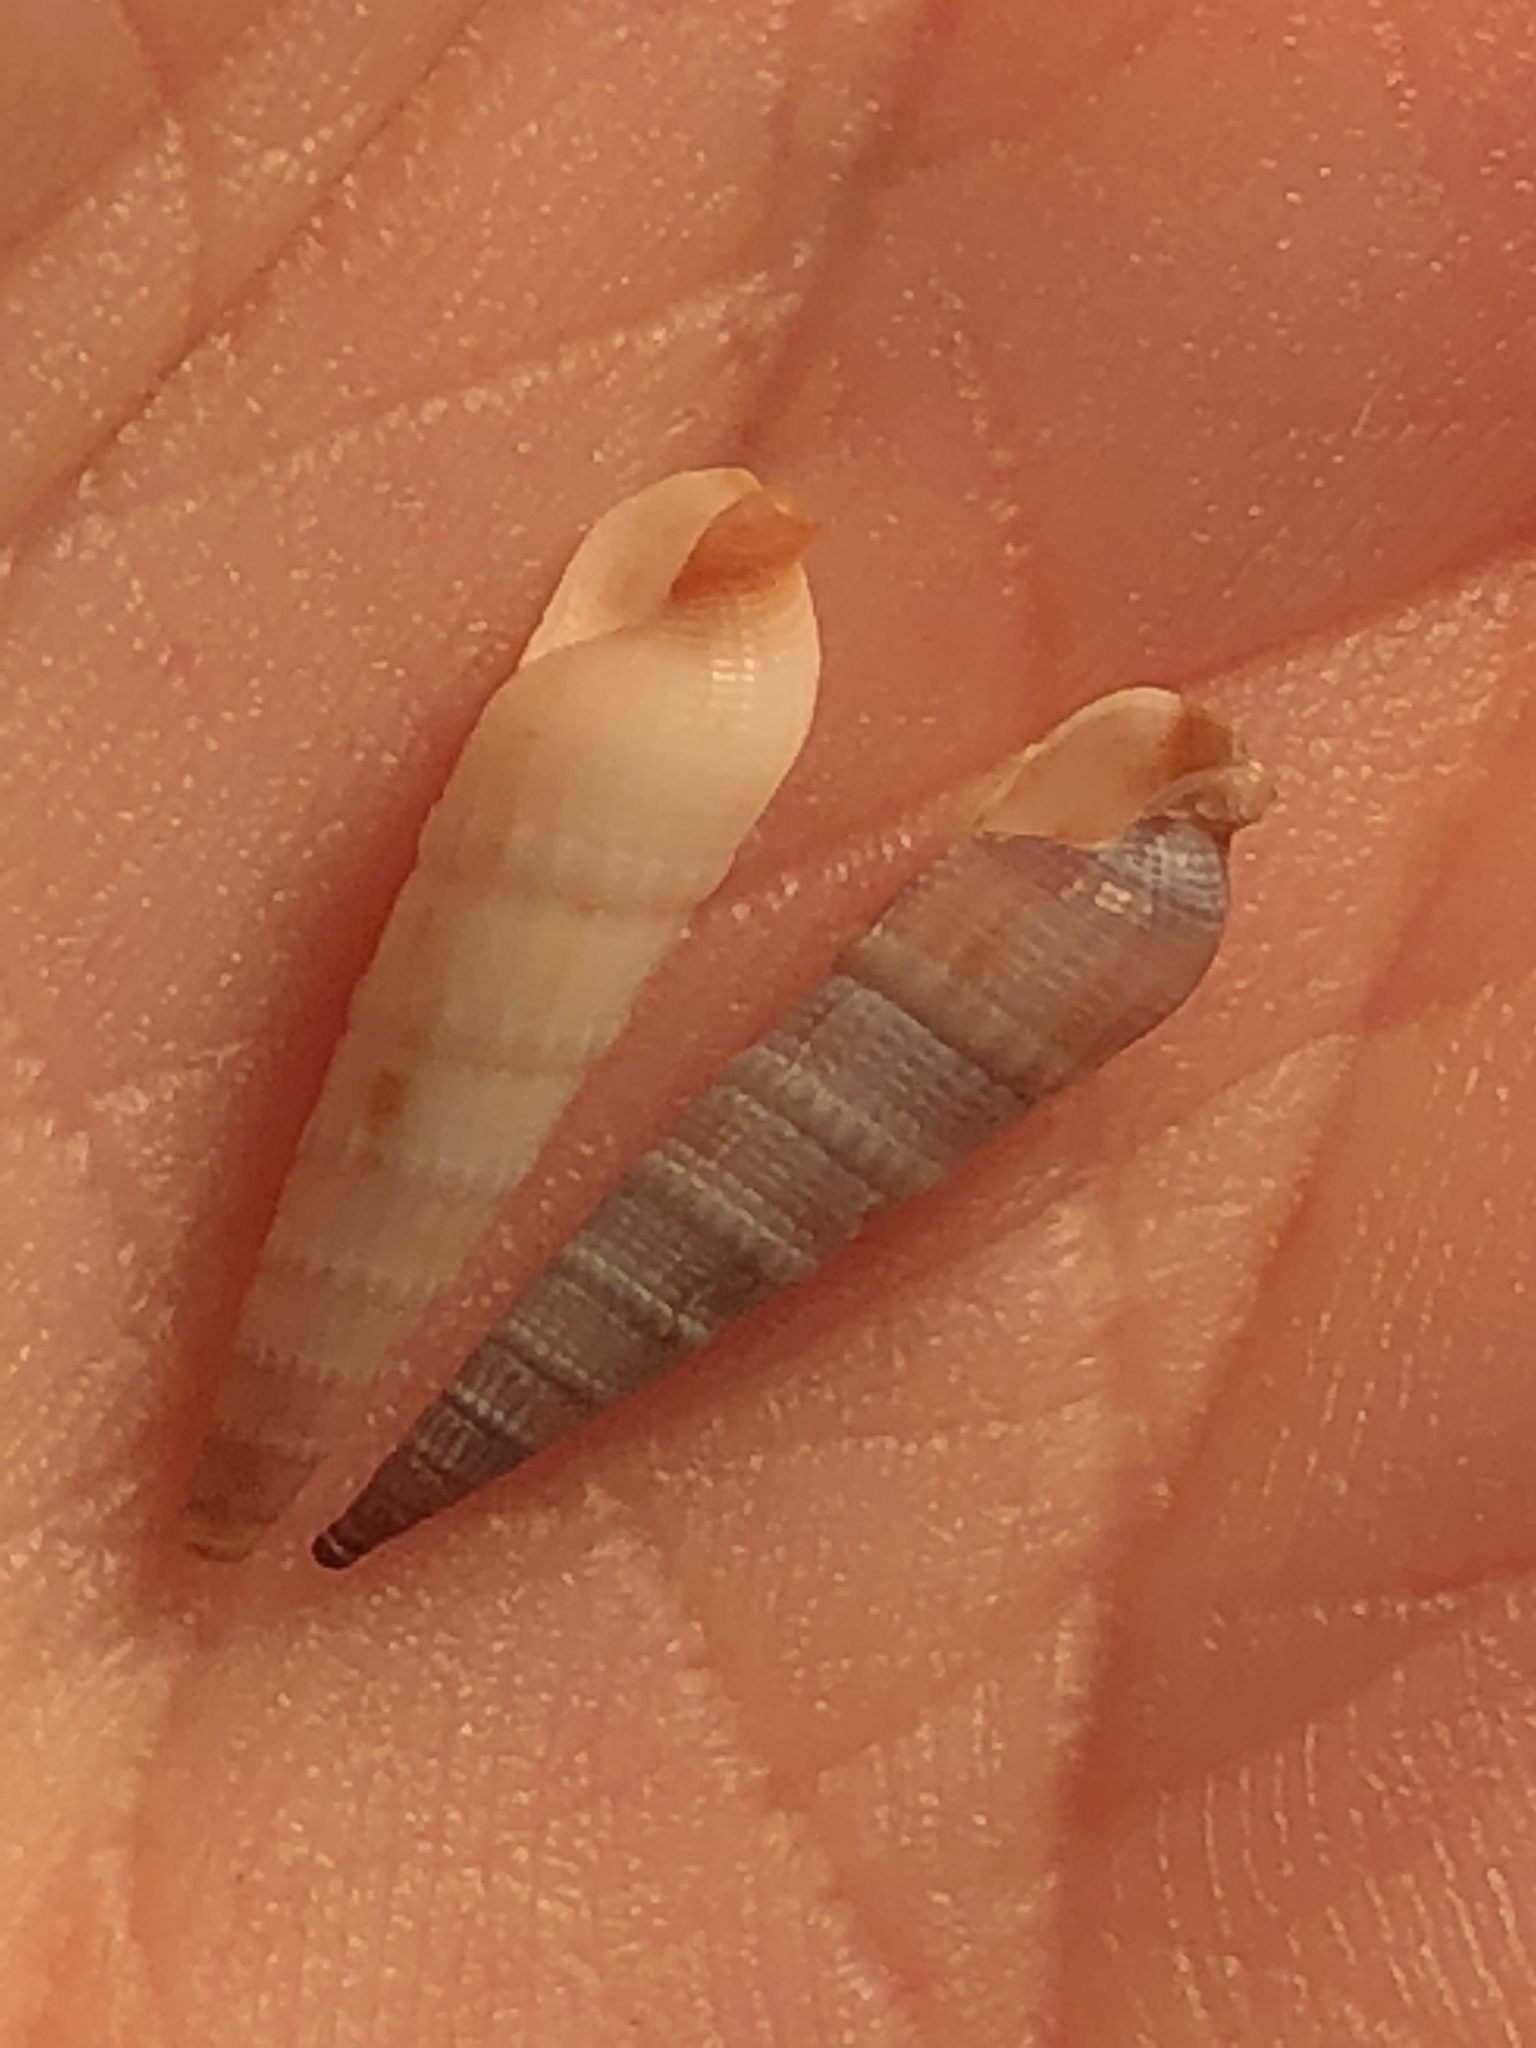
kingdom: Animalia
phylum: Mollusca
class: Gastropoda
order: Neogastropoda
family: Terebridae
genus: Neoterebra
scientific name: Neoterebra vinosa
